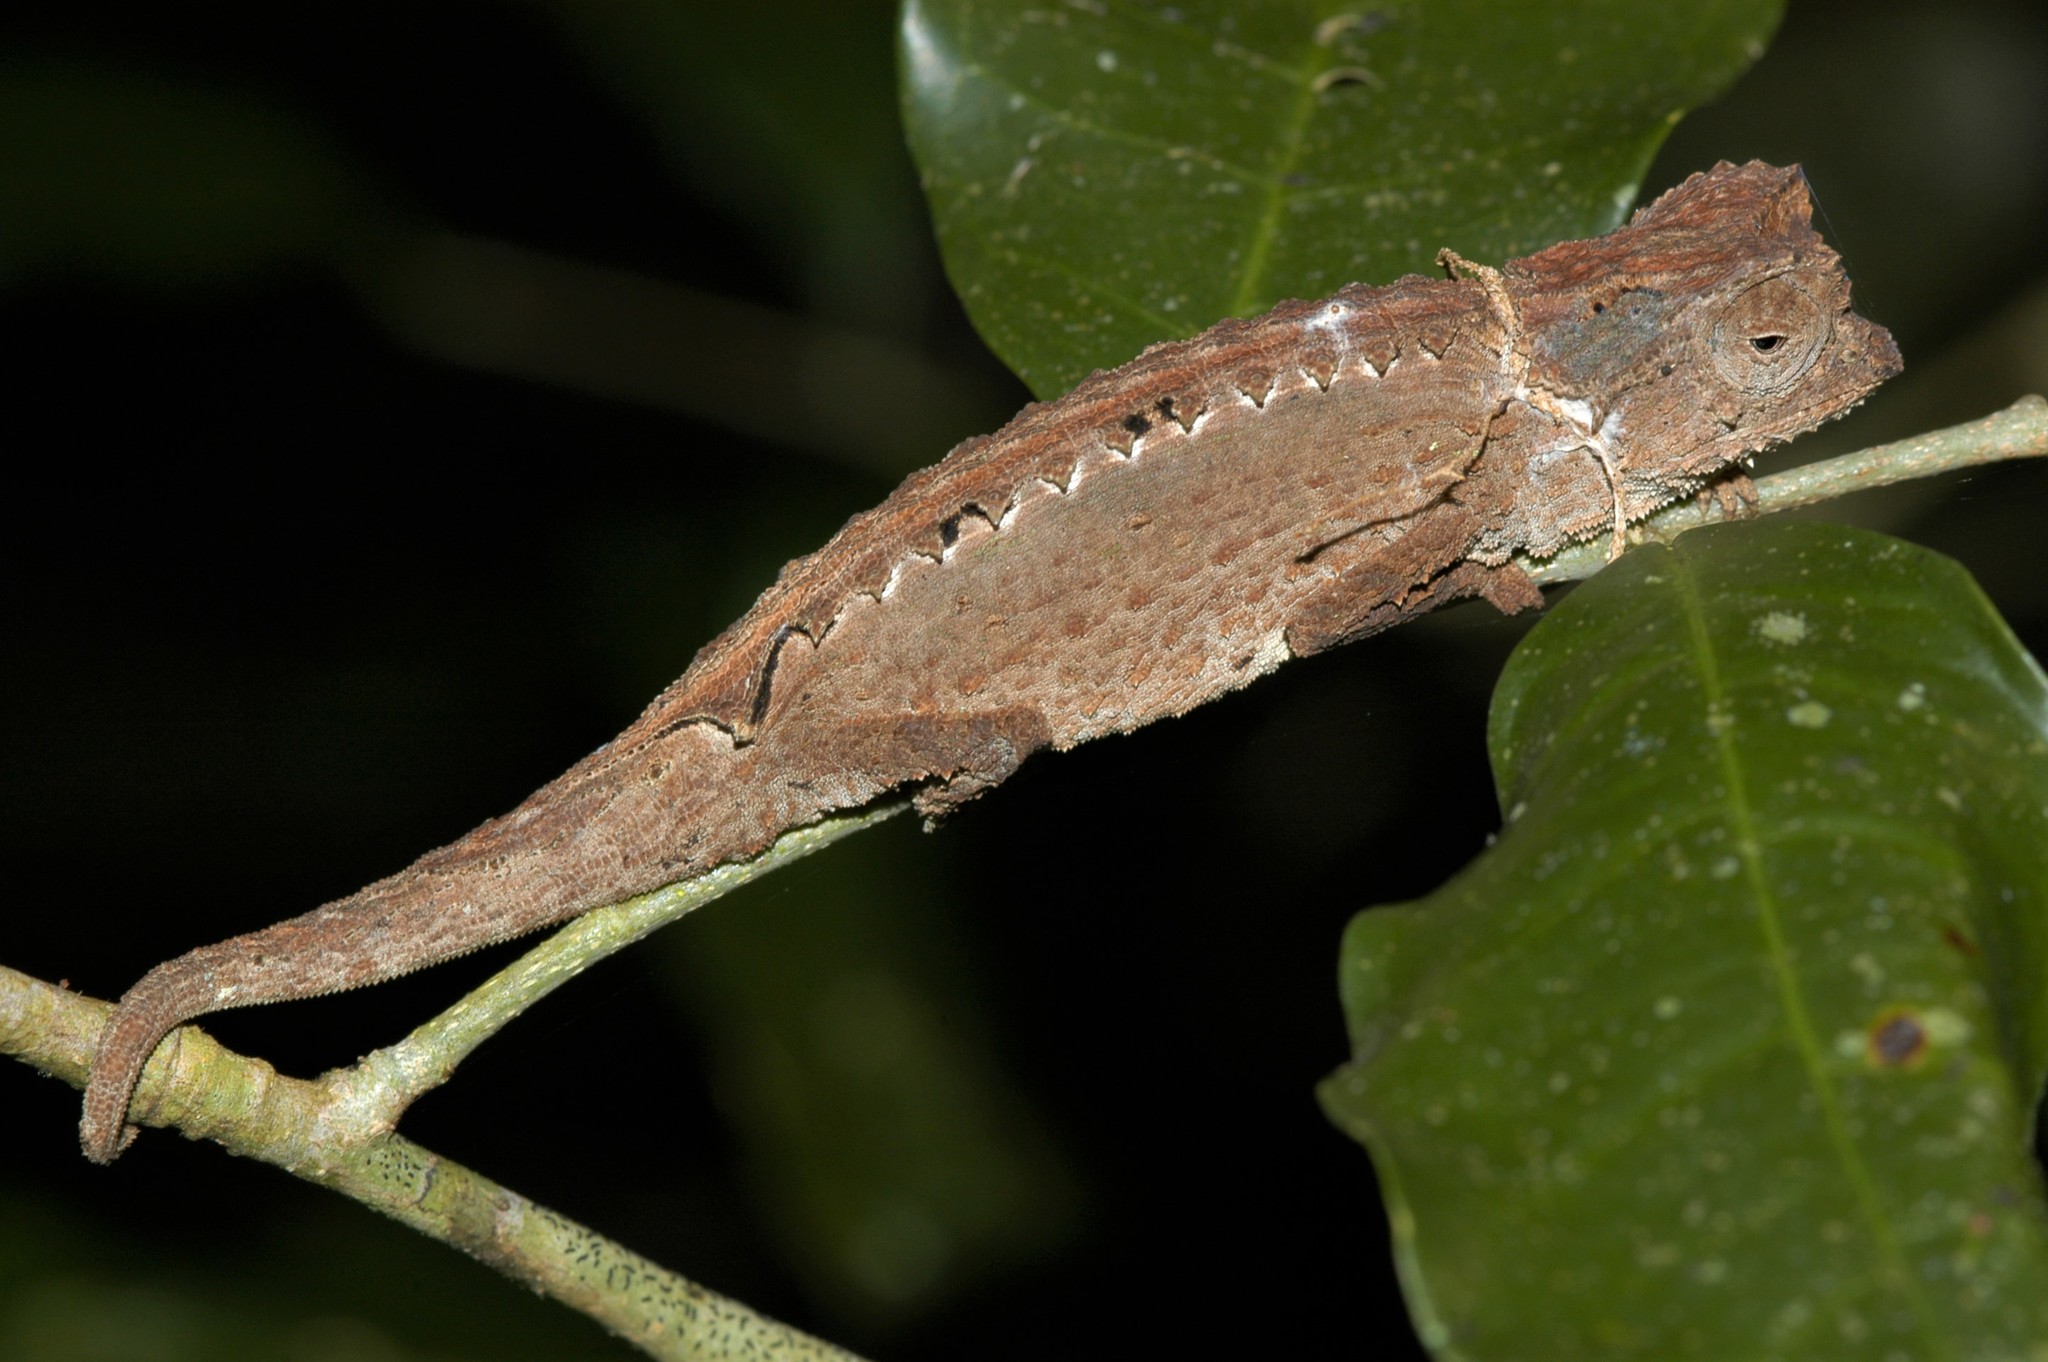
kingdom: Animalia
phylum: Chordata
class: Squamata
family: Chamaeleonidae
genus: Brookesia
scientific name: Brookesia antakarana
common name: Antakarana leaf chameleon
